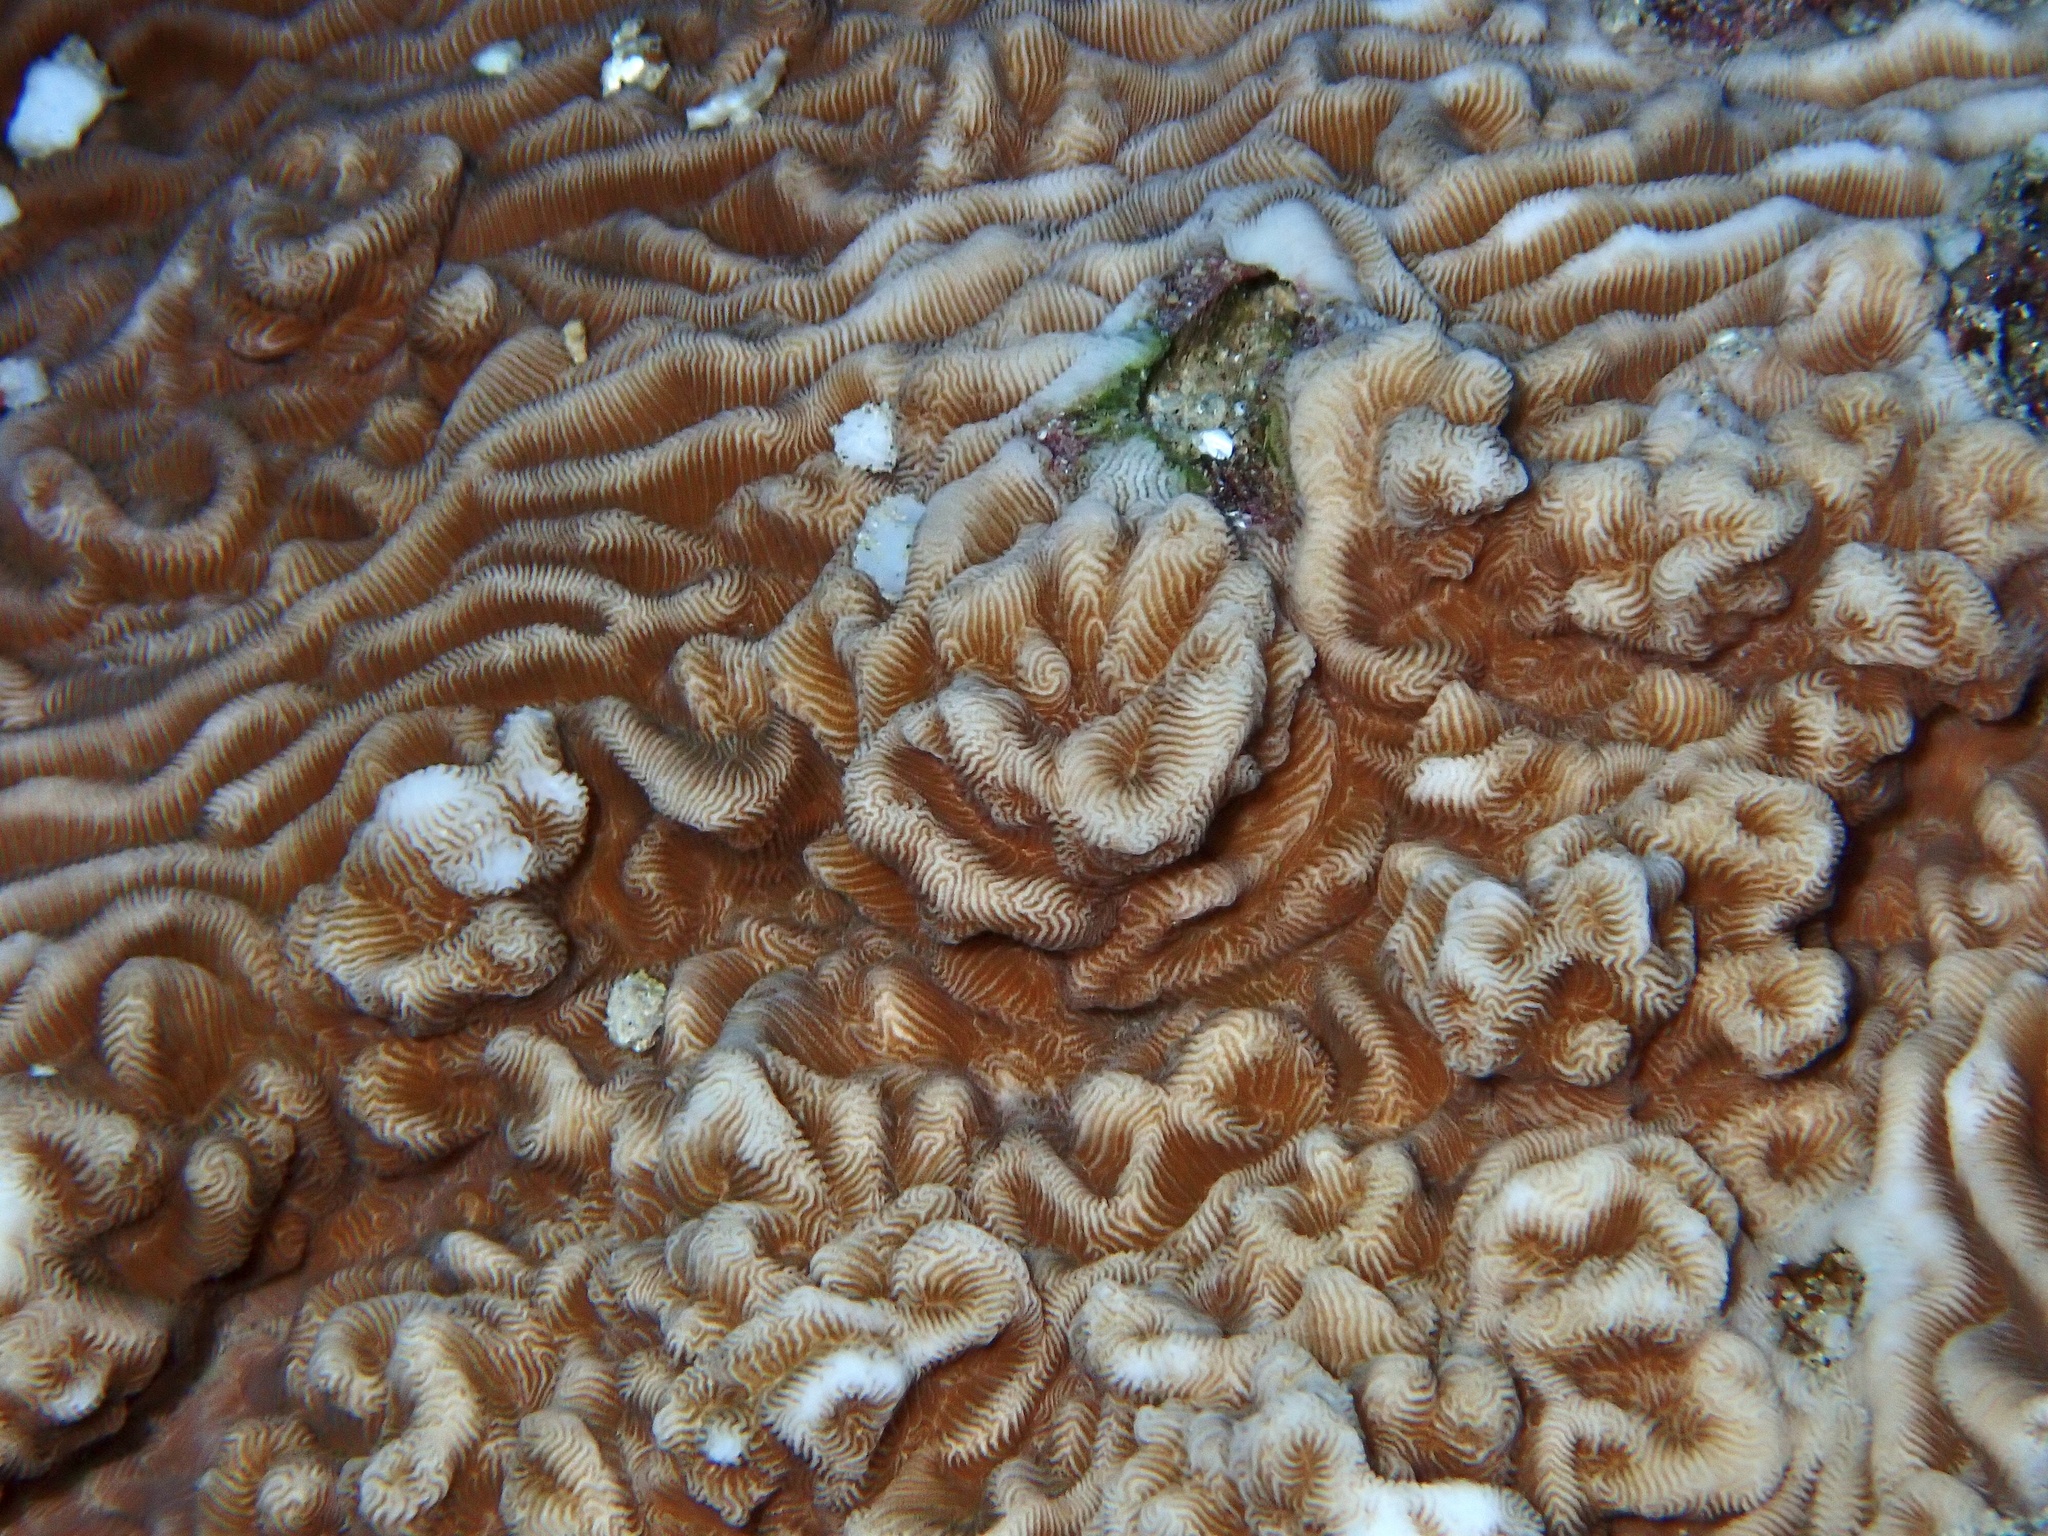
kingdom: Animalia
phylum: Cnidaria
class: Anthozoa
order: Scleractinia
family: Agariciidae
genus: Leptoseris
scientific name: Leptoseris mycetoseroides
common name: Porcelain coral
